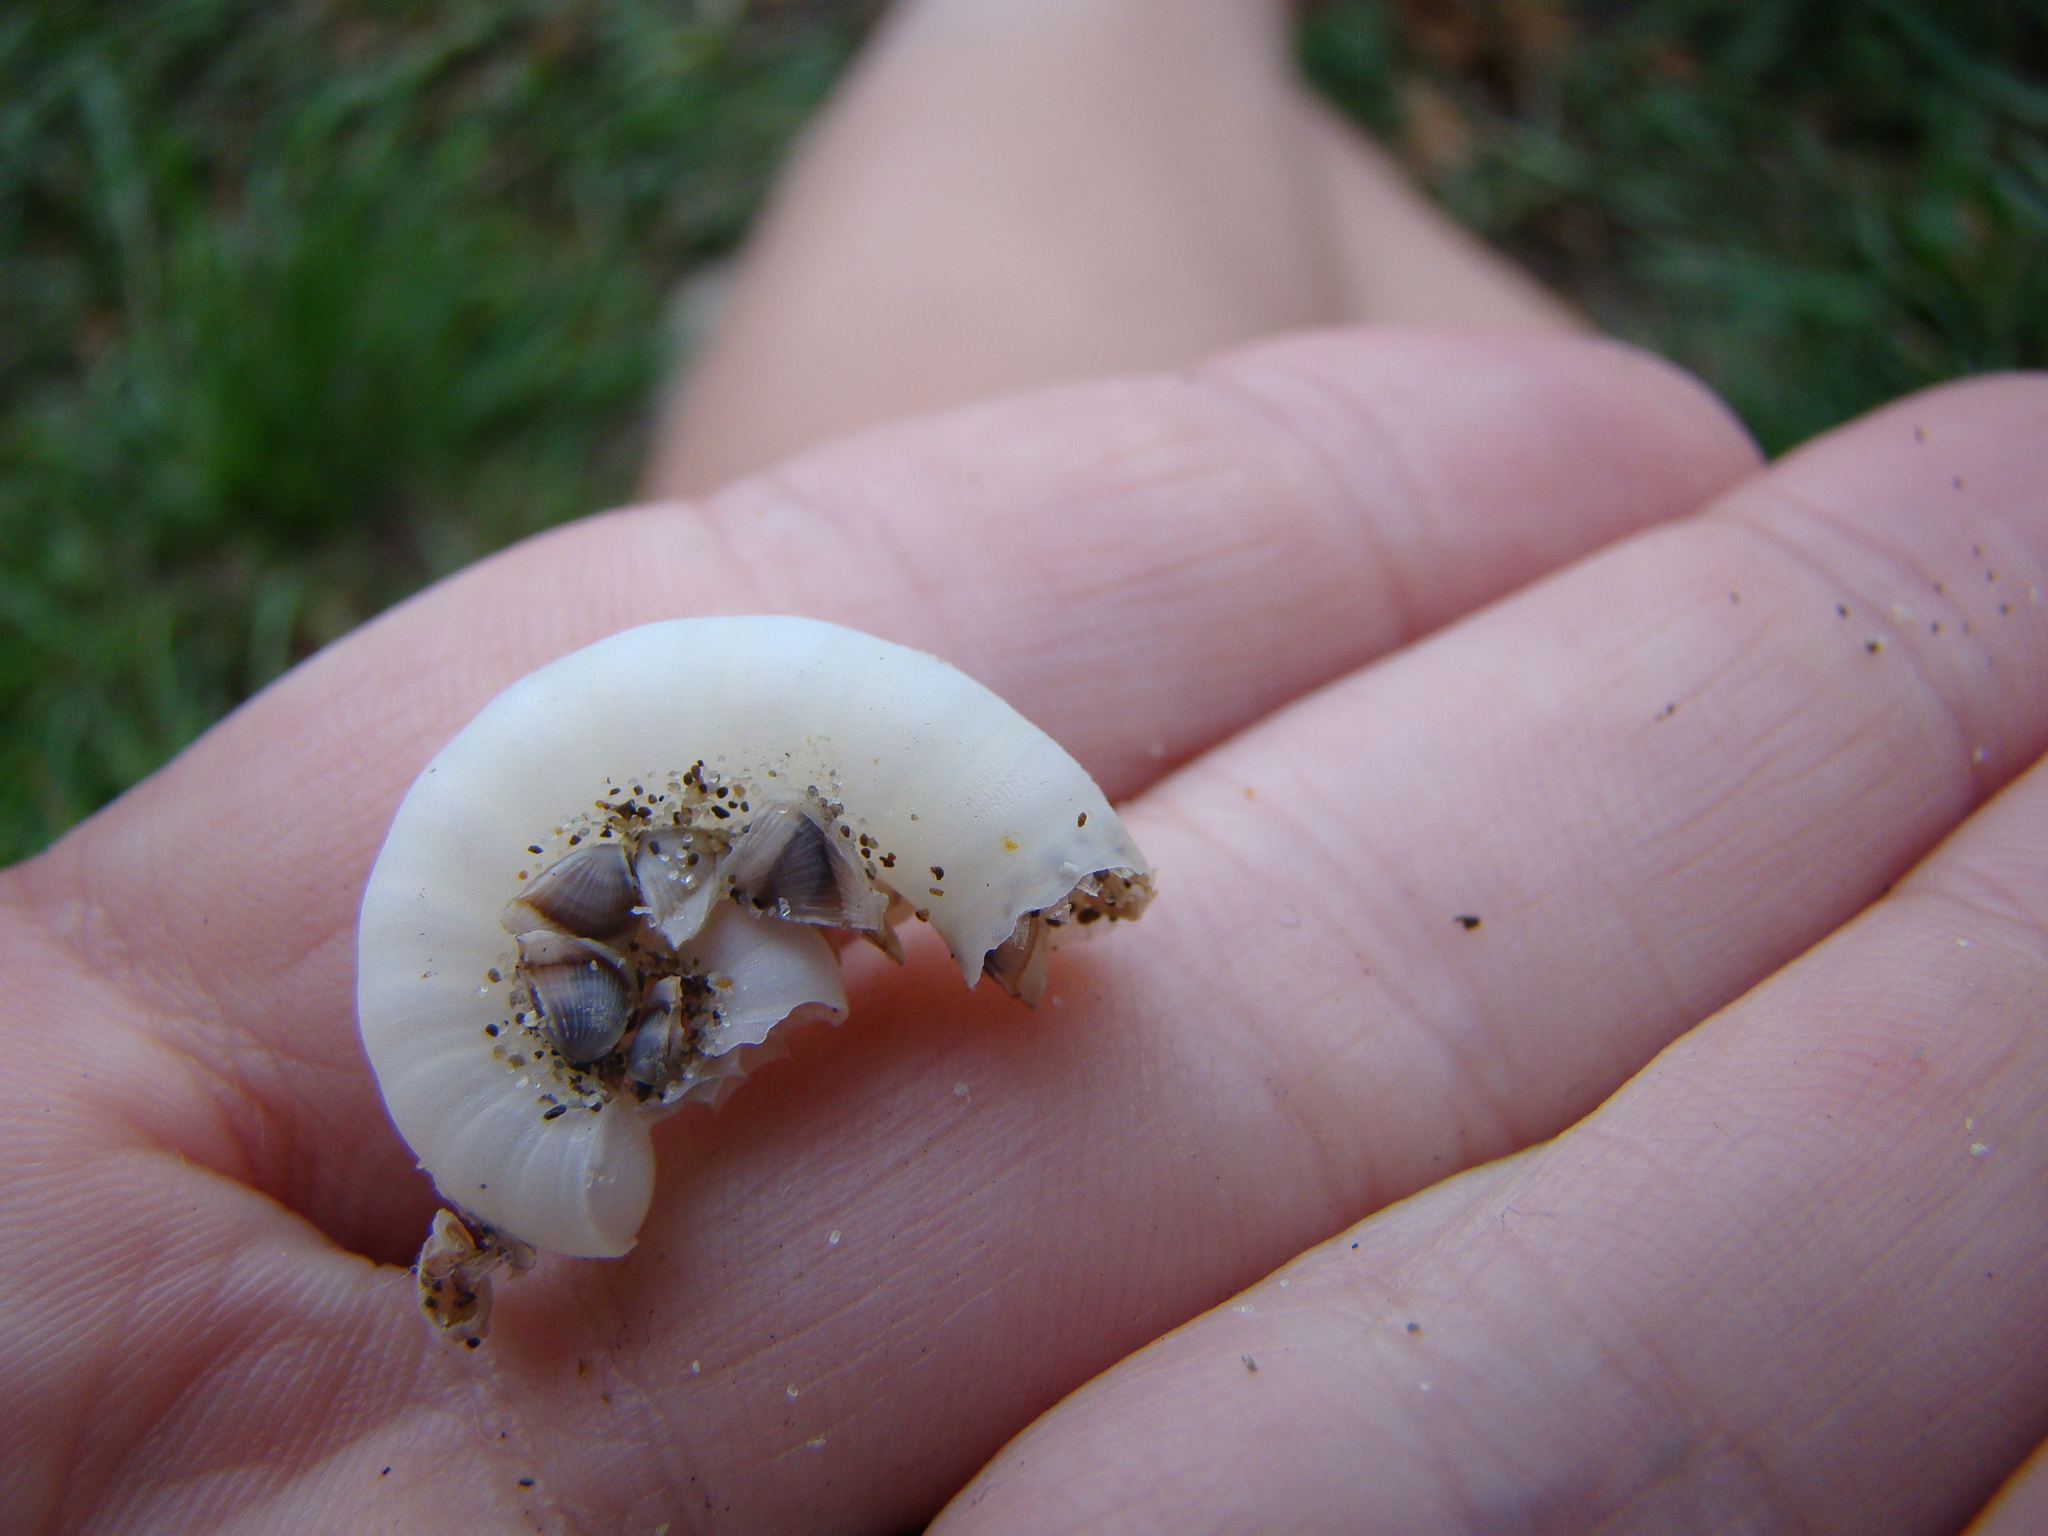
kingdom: Animalia
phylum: Arthropoda
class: Maxillopoda
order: Pedunculata
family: Lepadidae
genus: Lepas
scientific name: Lepas pectinata
